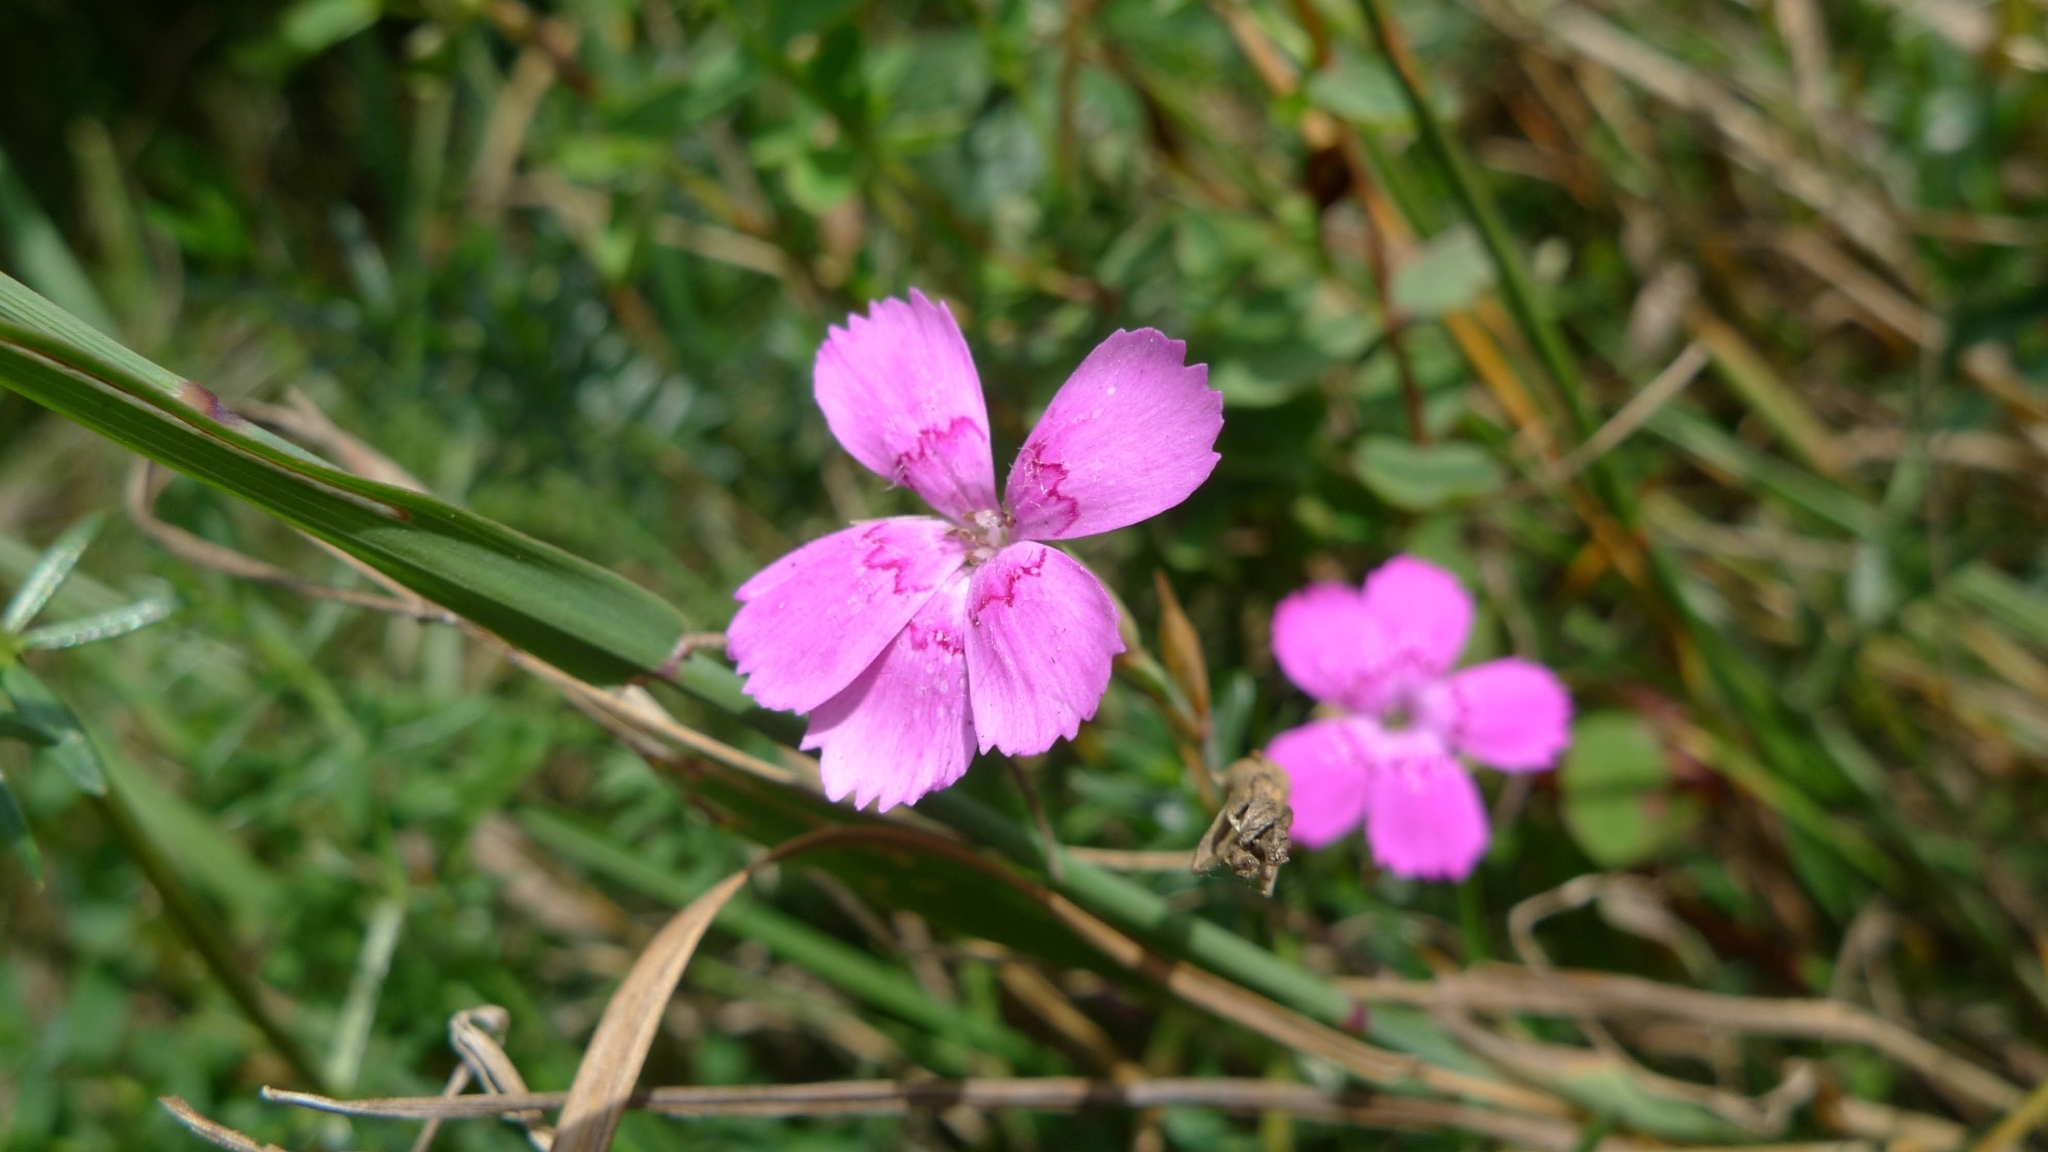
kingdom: Plantae
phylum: Tracheophyta
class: Magnoliopsida
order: Caryophyllales
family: Caryophyllaceae
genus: Dianthus
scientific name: Dianthus deltoides
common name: Maiden pink
